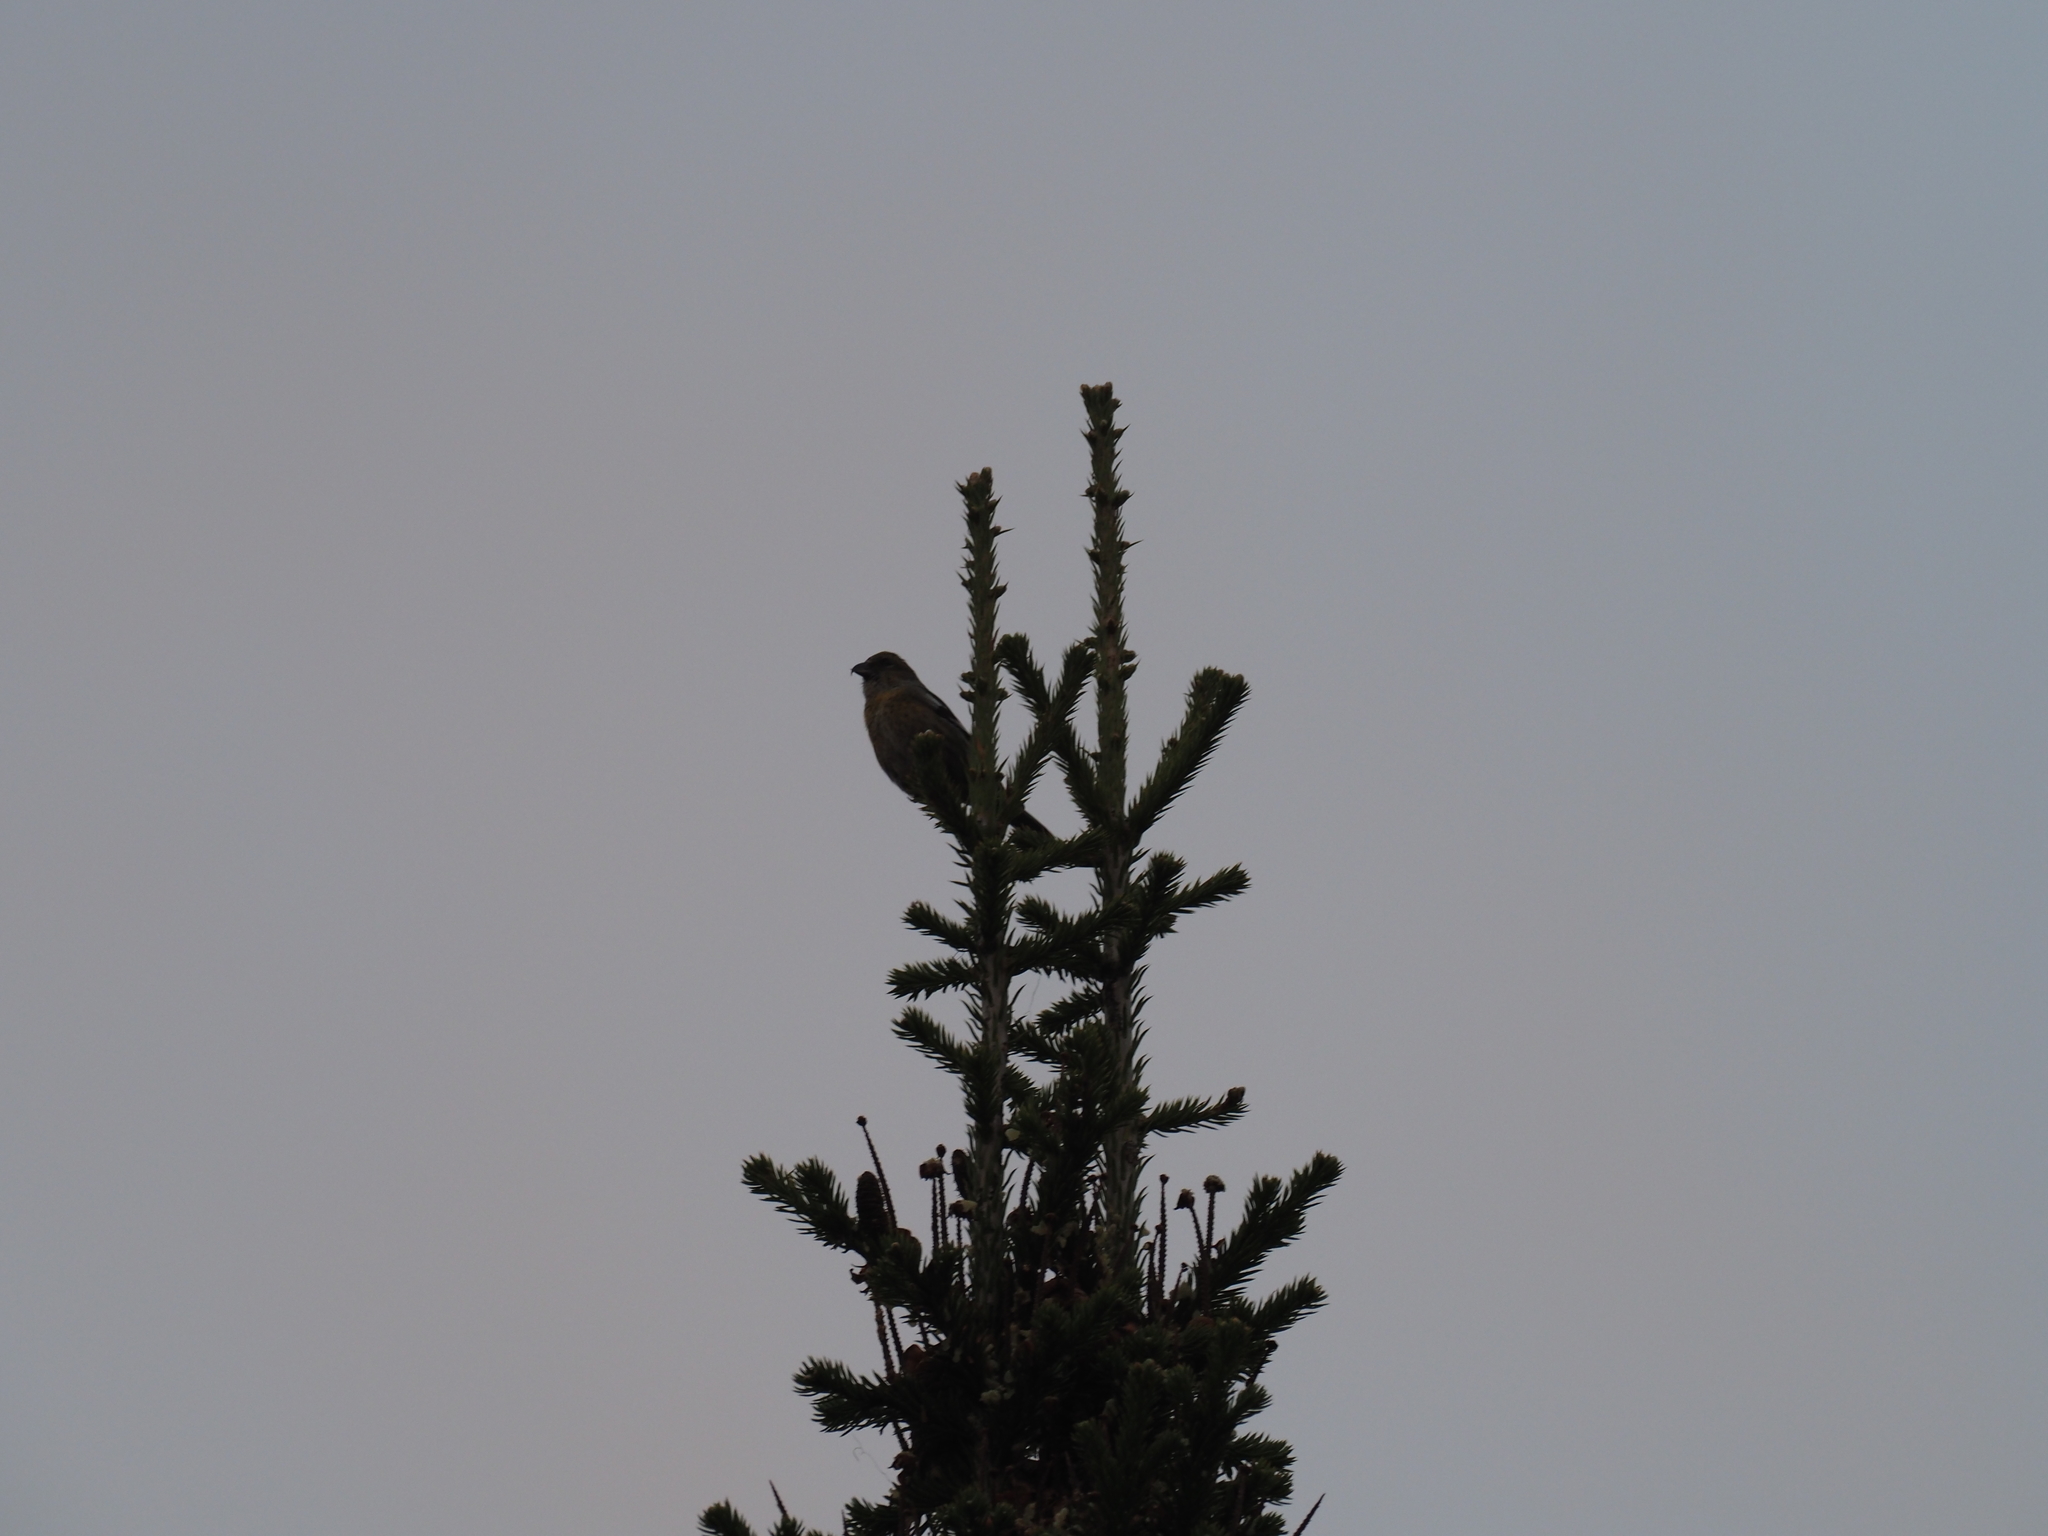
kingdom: Animalia
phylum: Chordata
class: Aves
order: Passeriformes
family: Fringillidae
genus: Loxia
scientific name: Loxia leucoptera
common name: Two-barred crossbill
